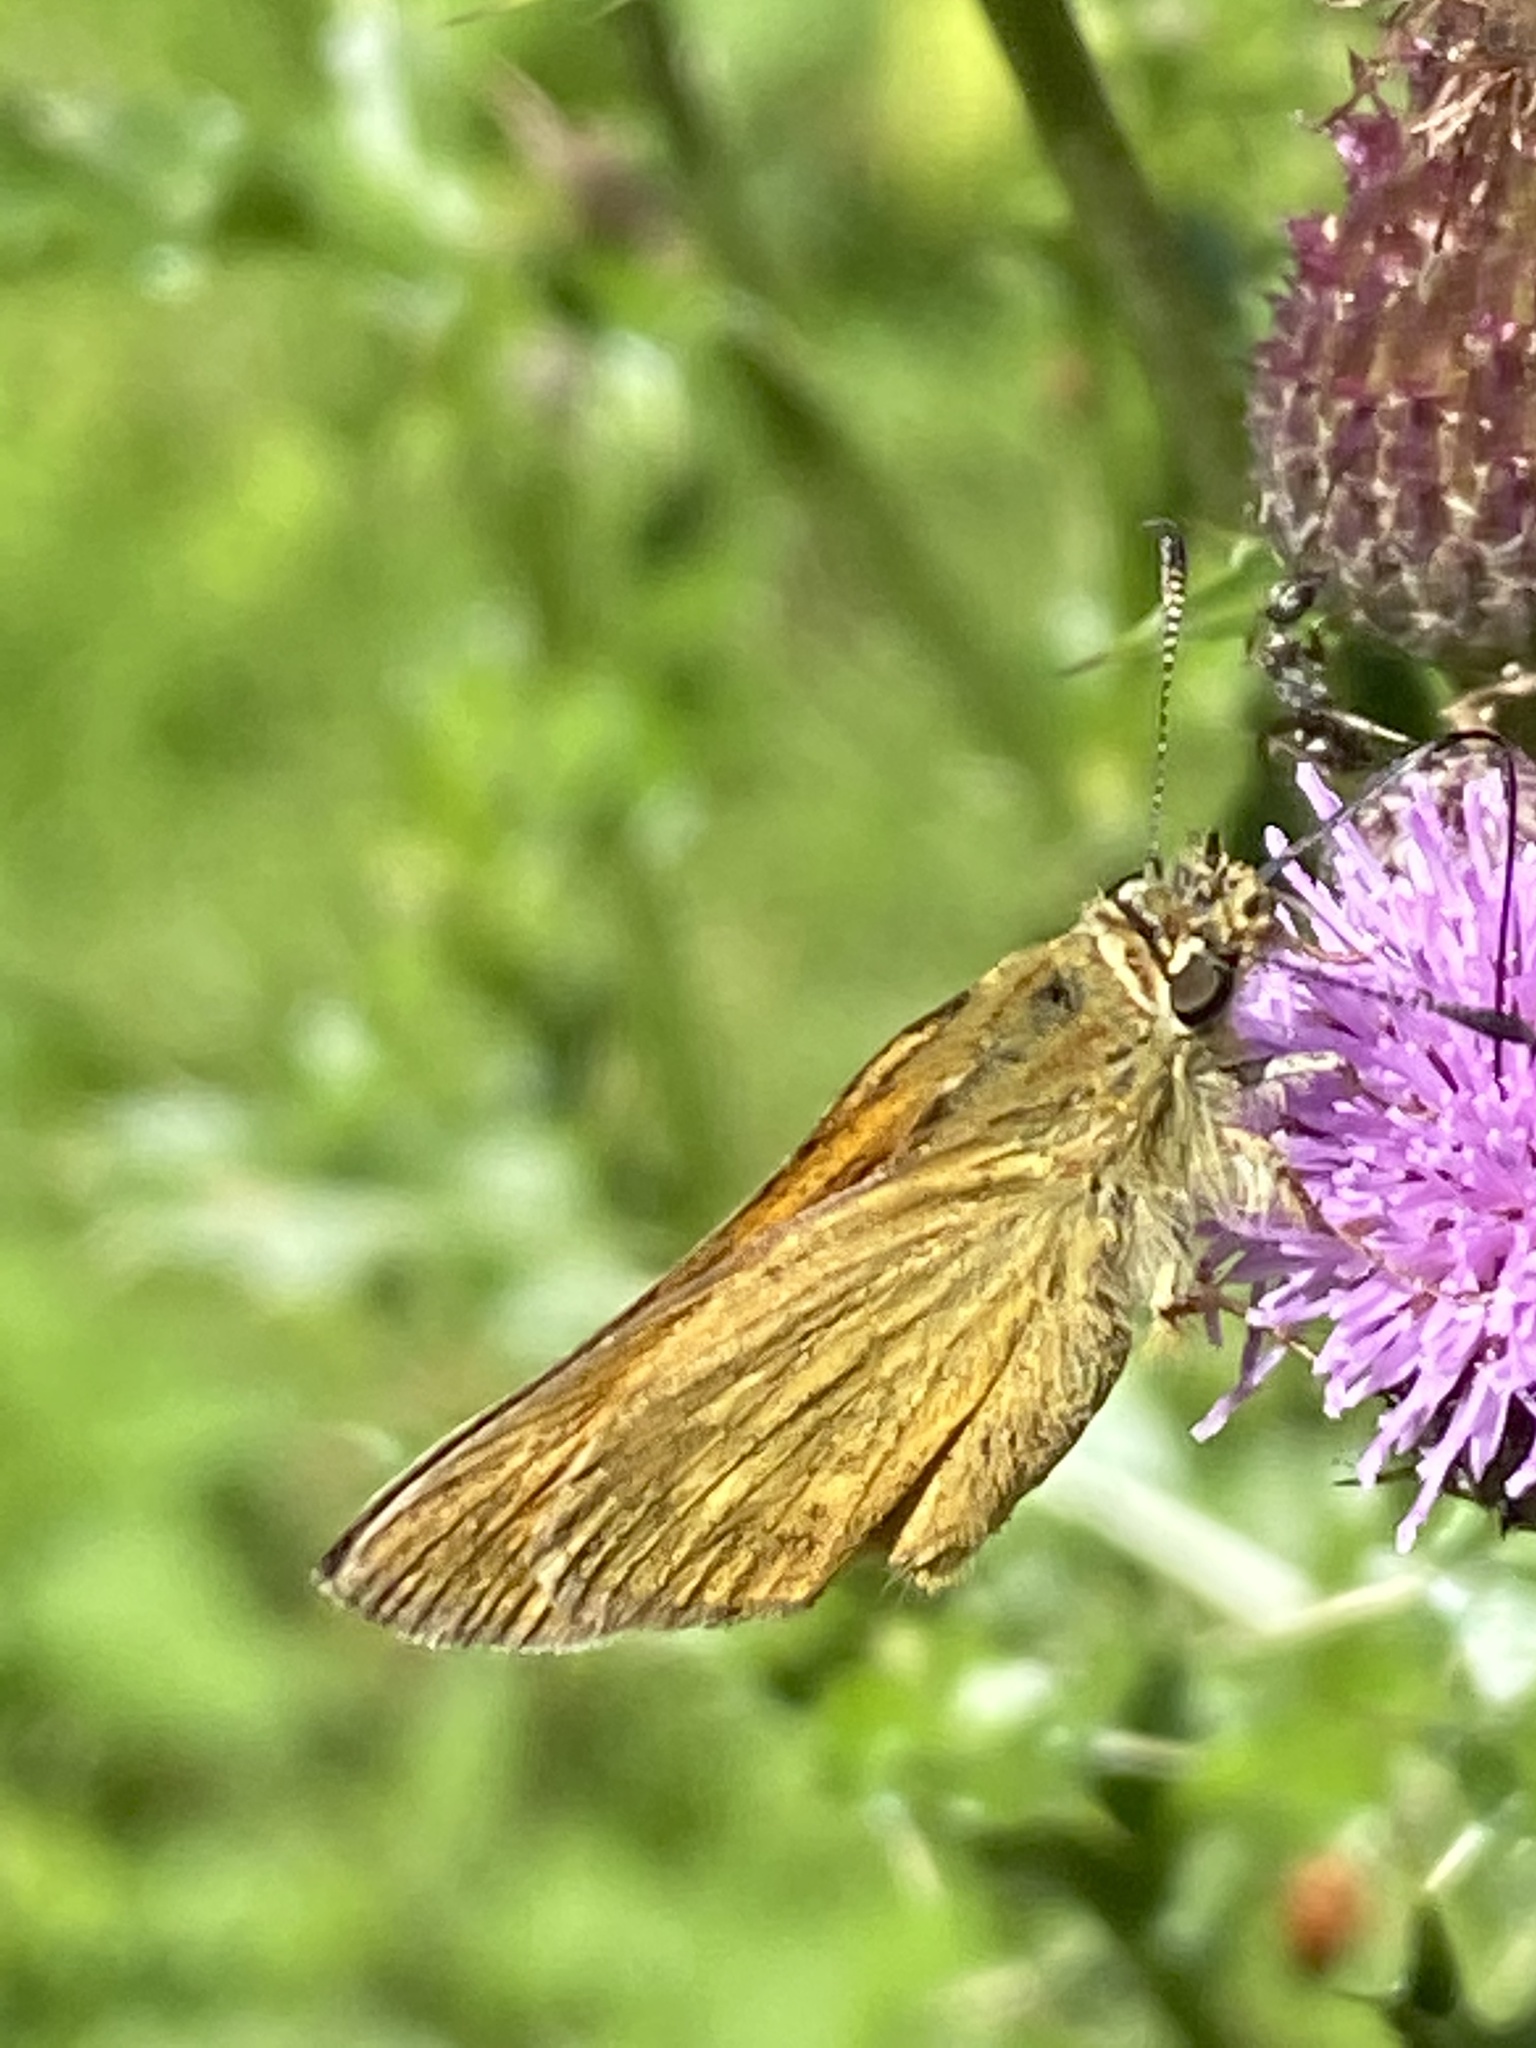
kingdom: Animalia
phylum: Arthropoda
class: Insecta
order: Lepidoptera
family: Hesperiidae
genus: Ochlodes
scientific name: Ochlodes venata
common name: Large skipper
